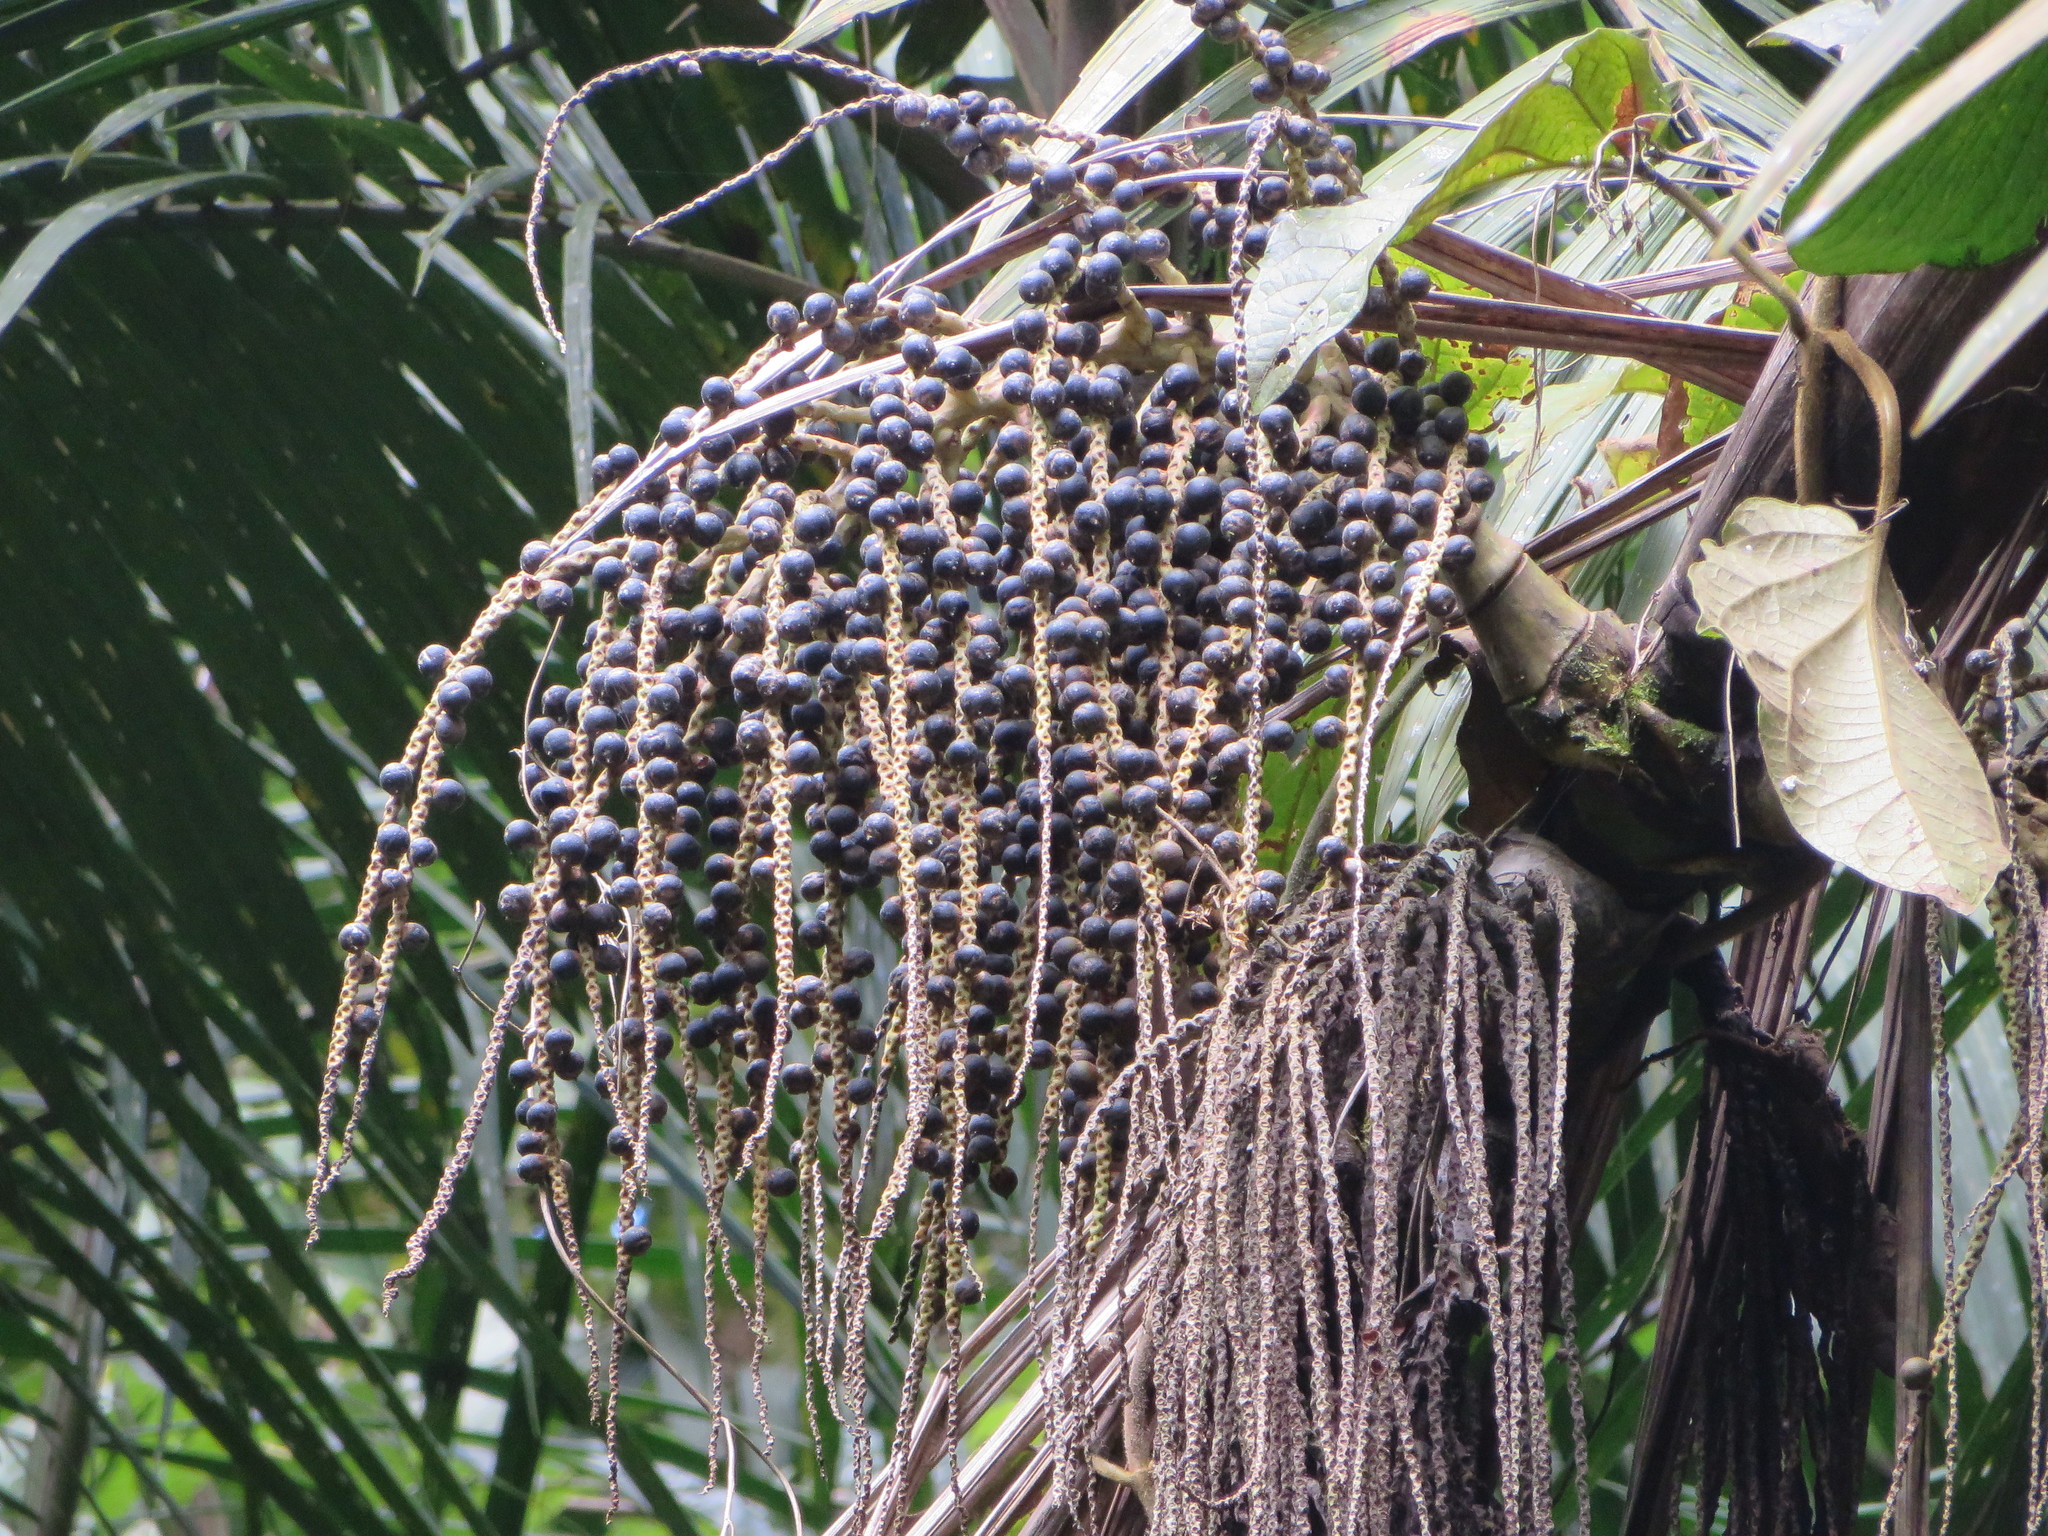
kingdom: Plantae
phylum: Tracheophyta
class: Liliopsida
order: Arecales
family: Arecaceae
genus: Prestoea
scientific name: Prestoea acuminata
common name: Sierran palm
